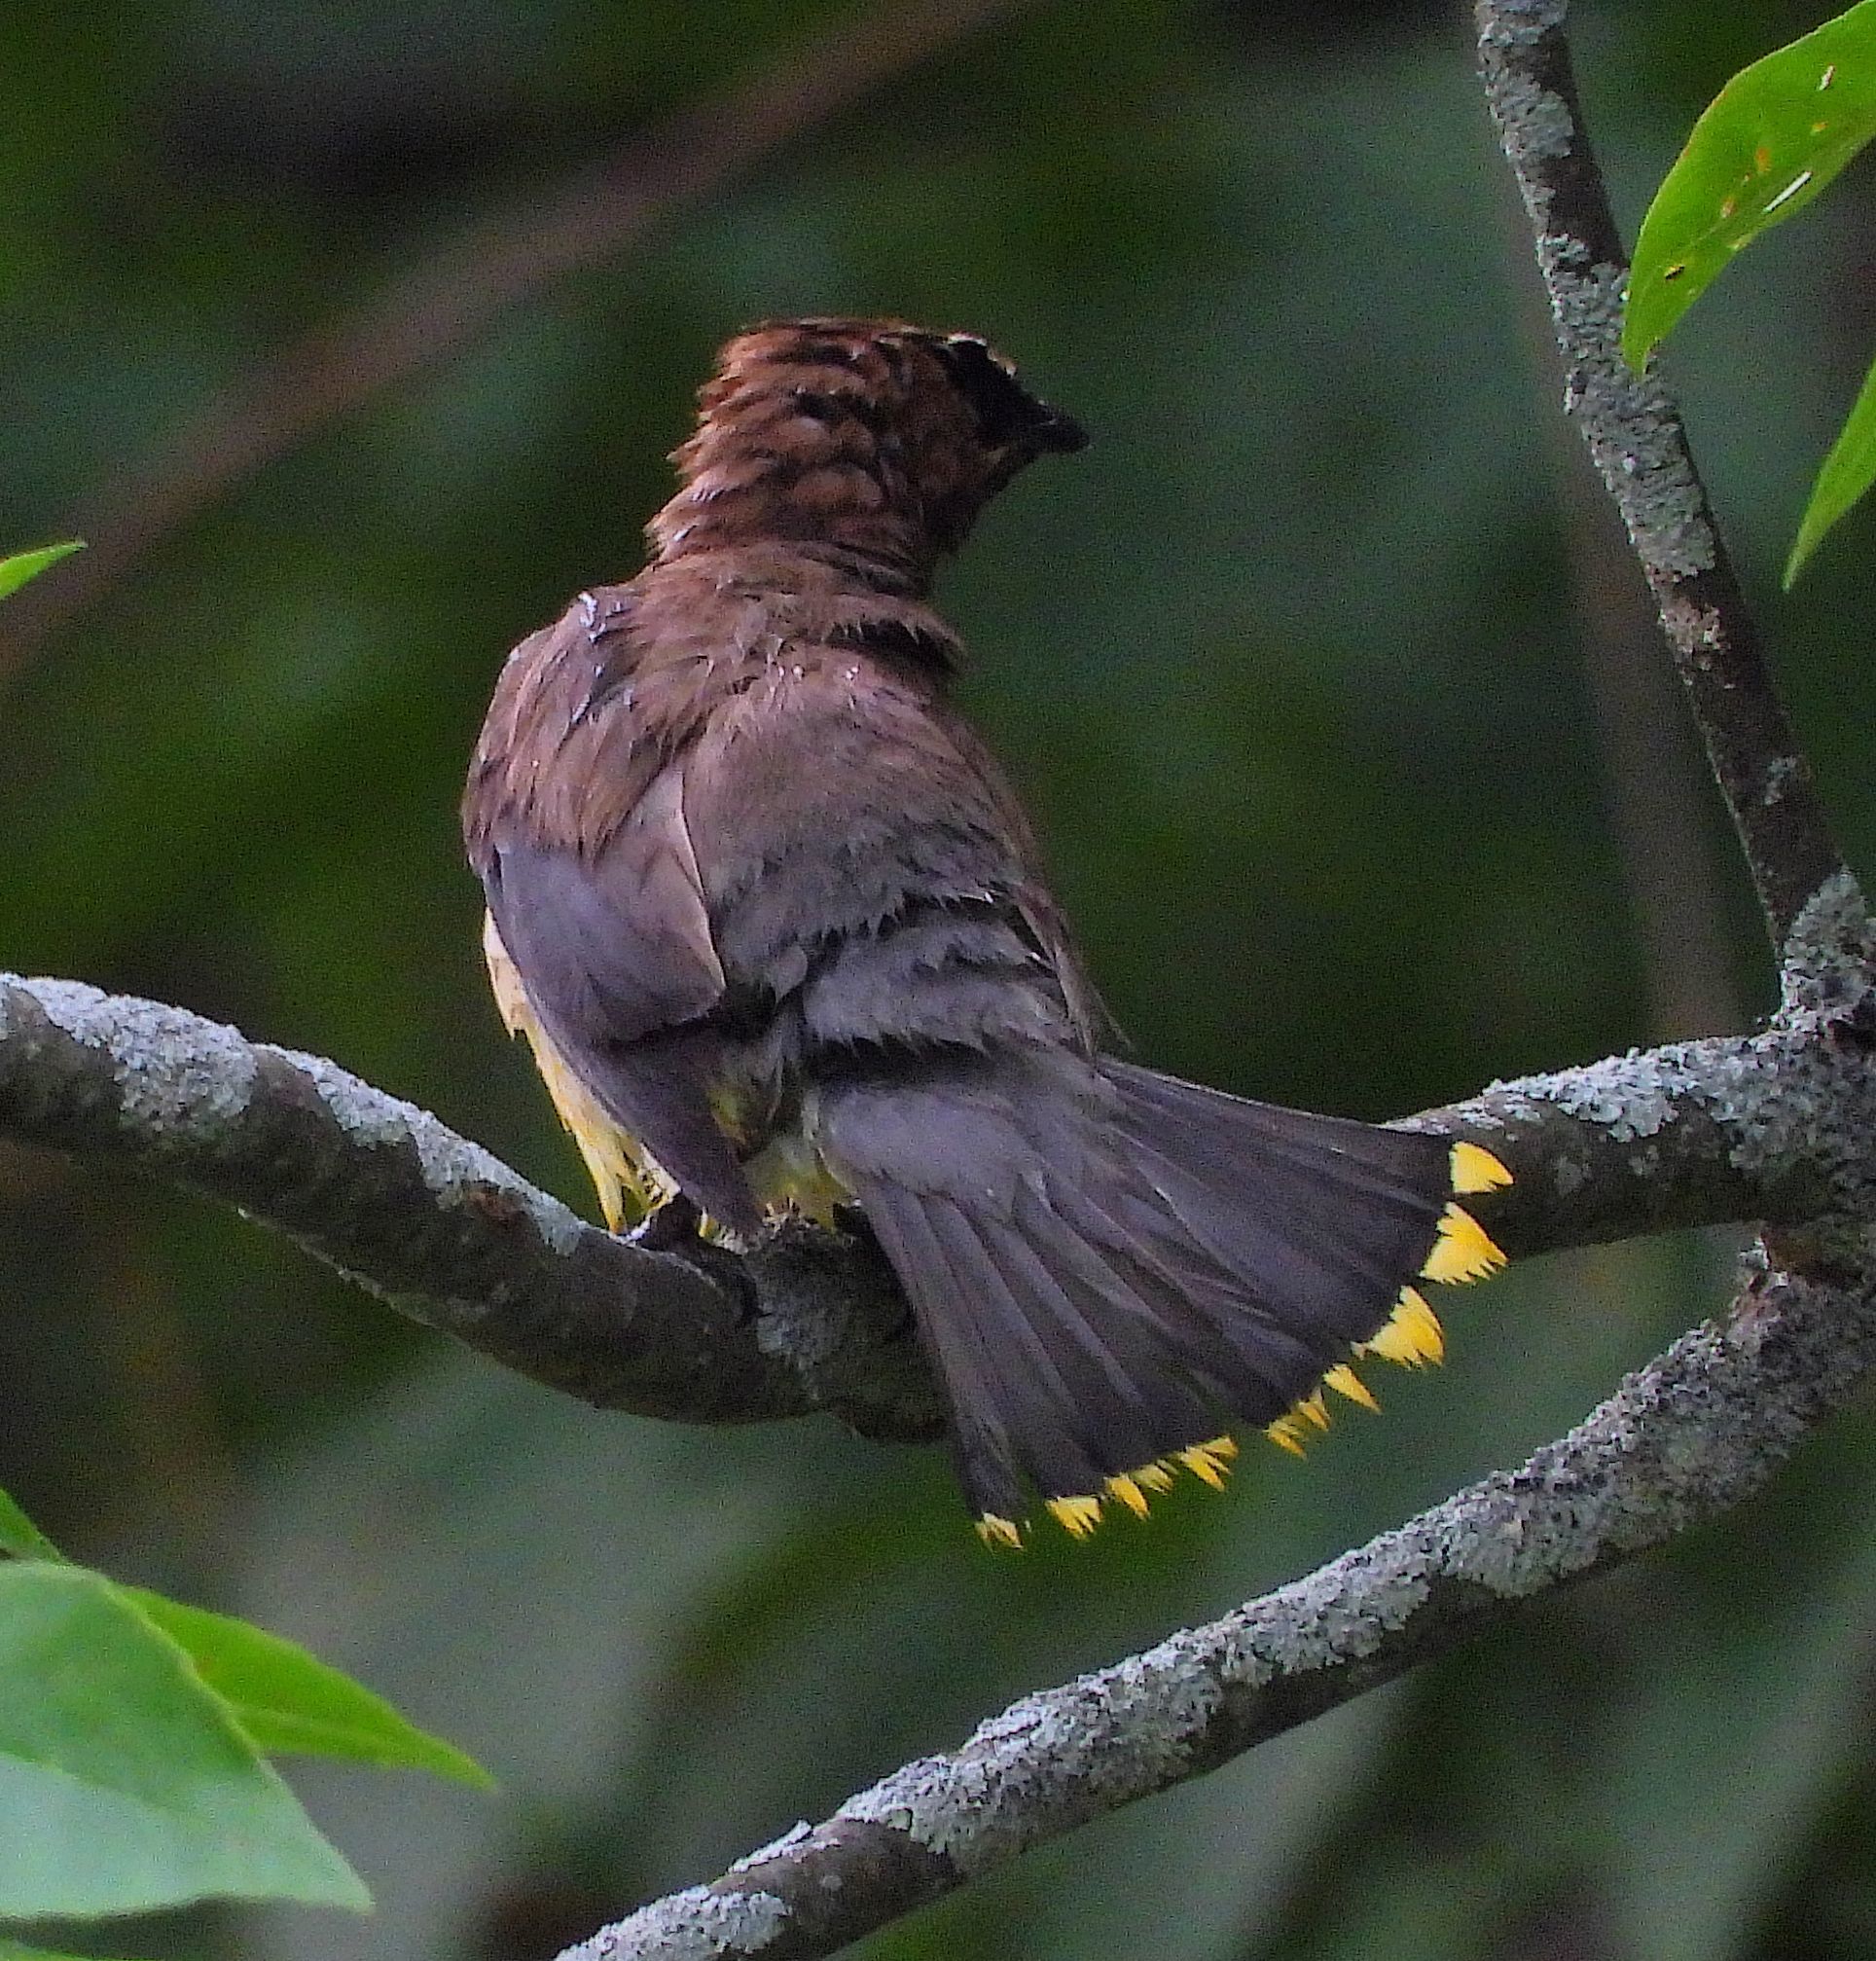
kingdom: Animalia
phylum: Chordata
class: Aves
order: Passeriformes
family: Bombycillidae
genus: Bombycilla
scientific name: Bombycilla cedrorum
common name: Cedar waxwing
